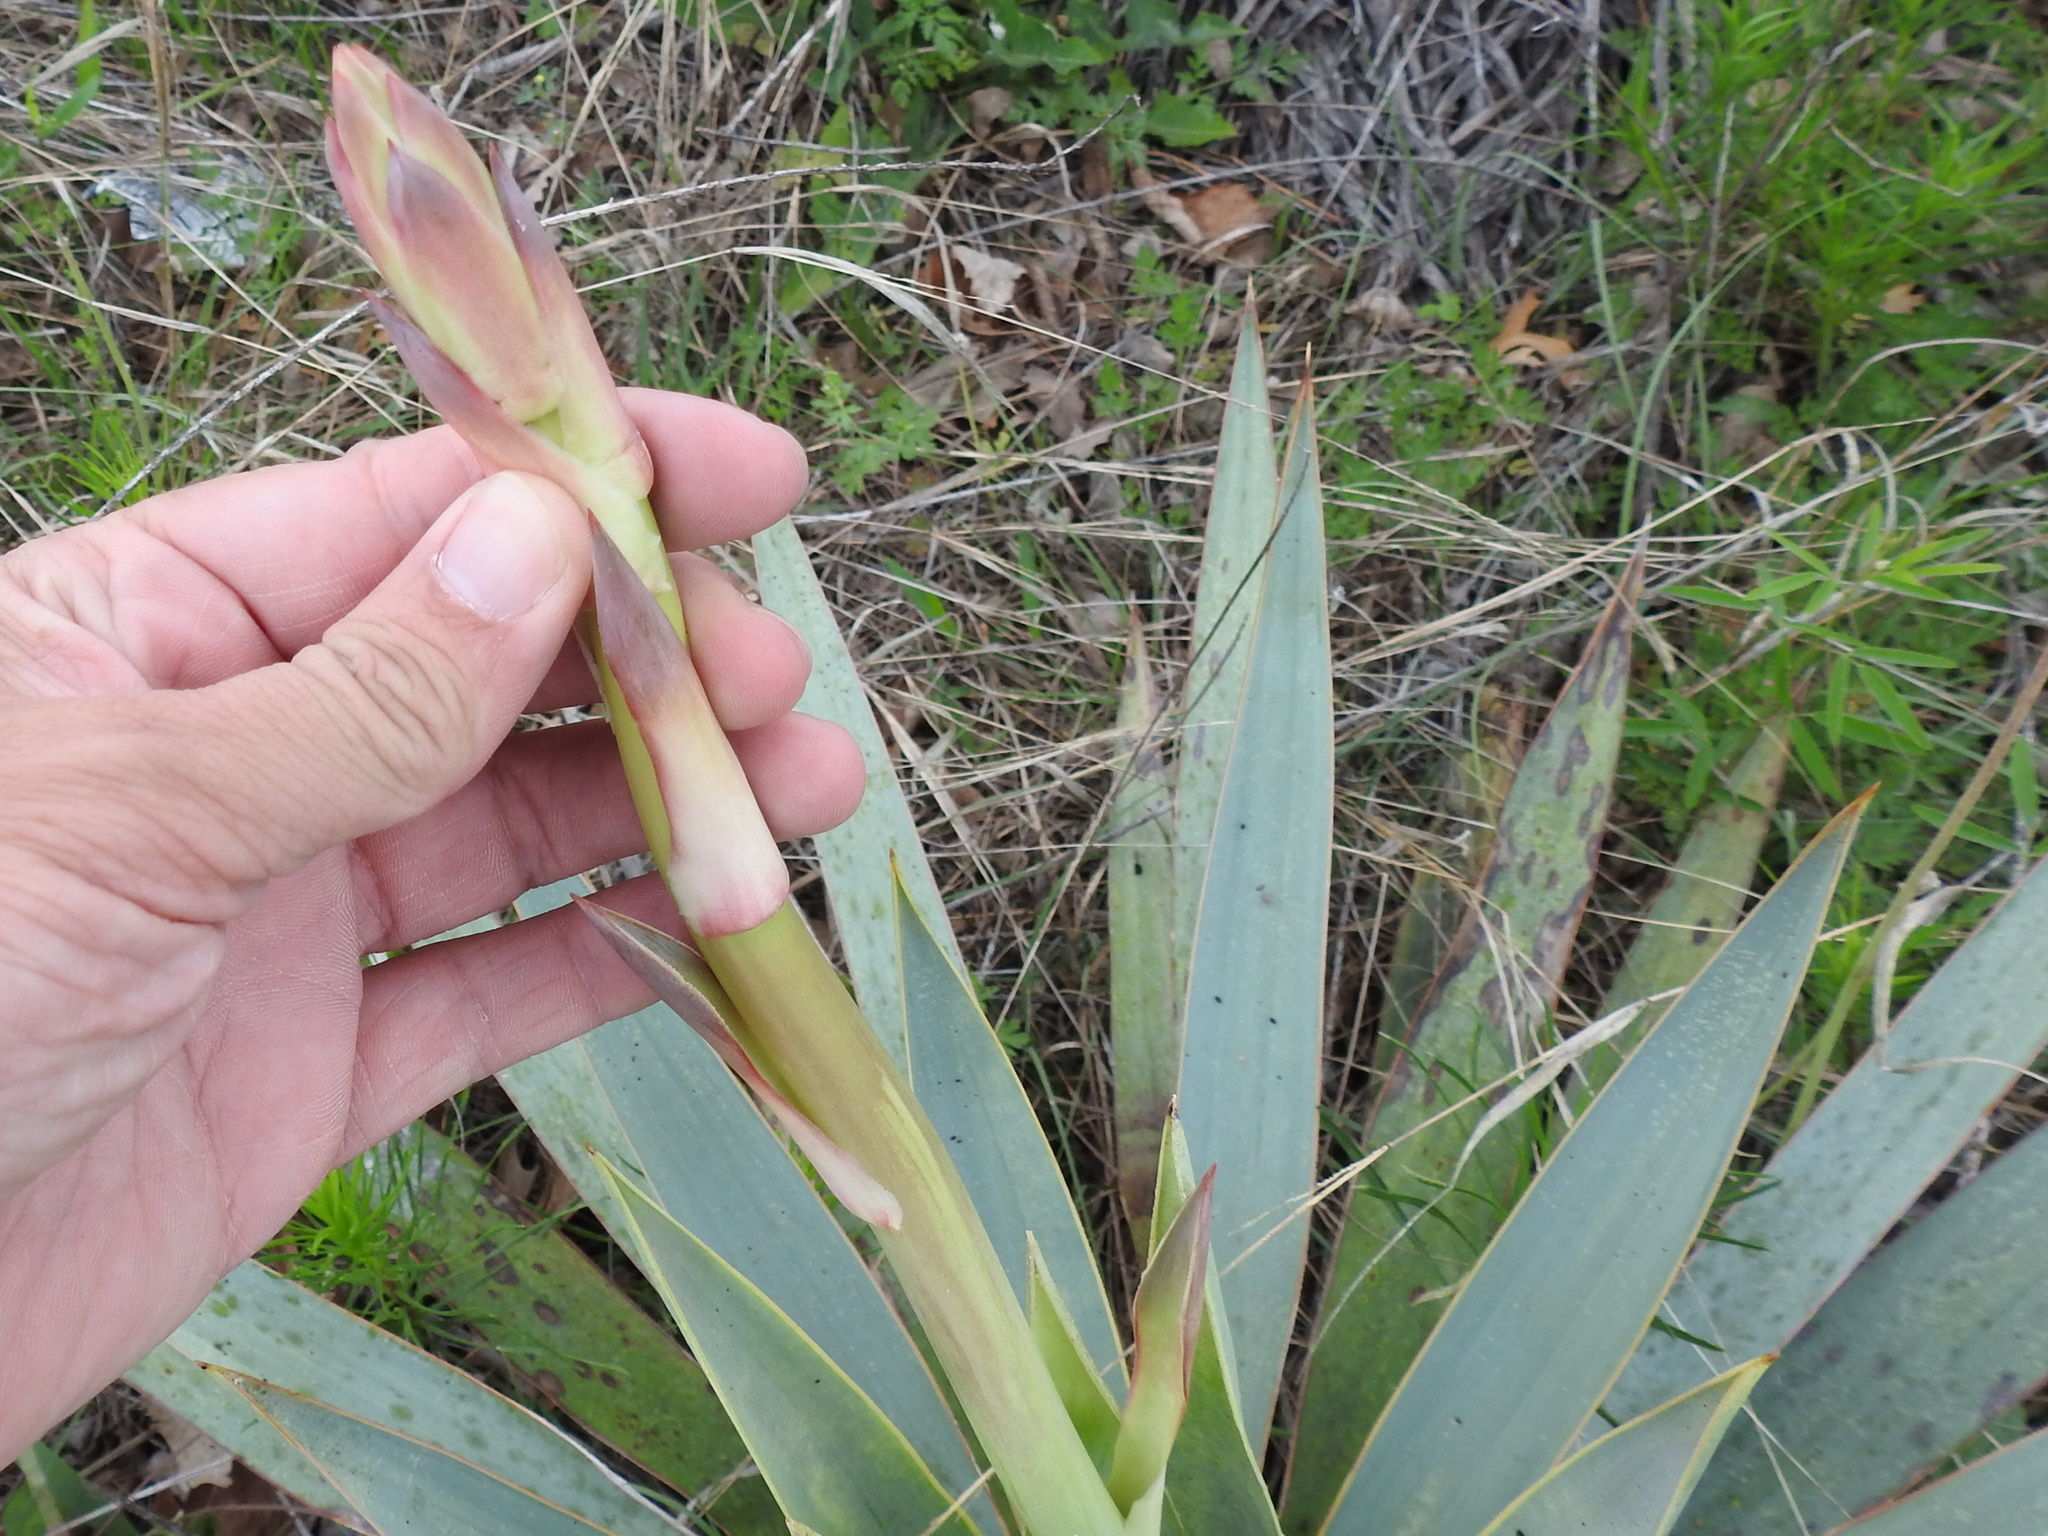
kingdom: Plantae
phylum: Tracheophyta
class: Liliopsida
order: Asparagales
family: Asparagaceae
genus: Yucca
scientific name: Yucca pallida
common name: Pale leaf yucca
